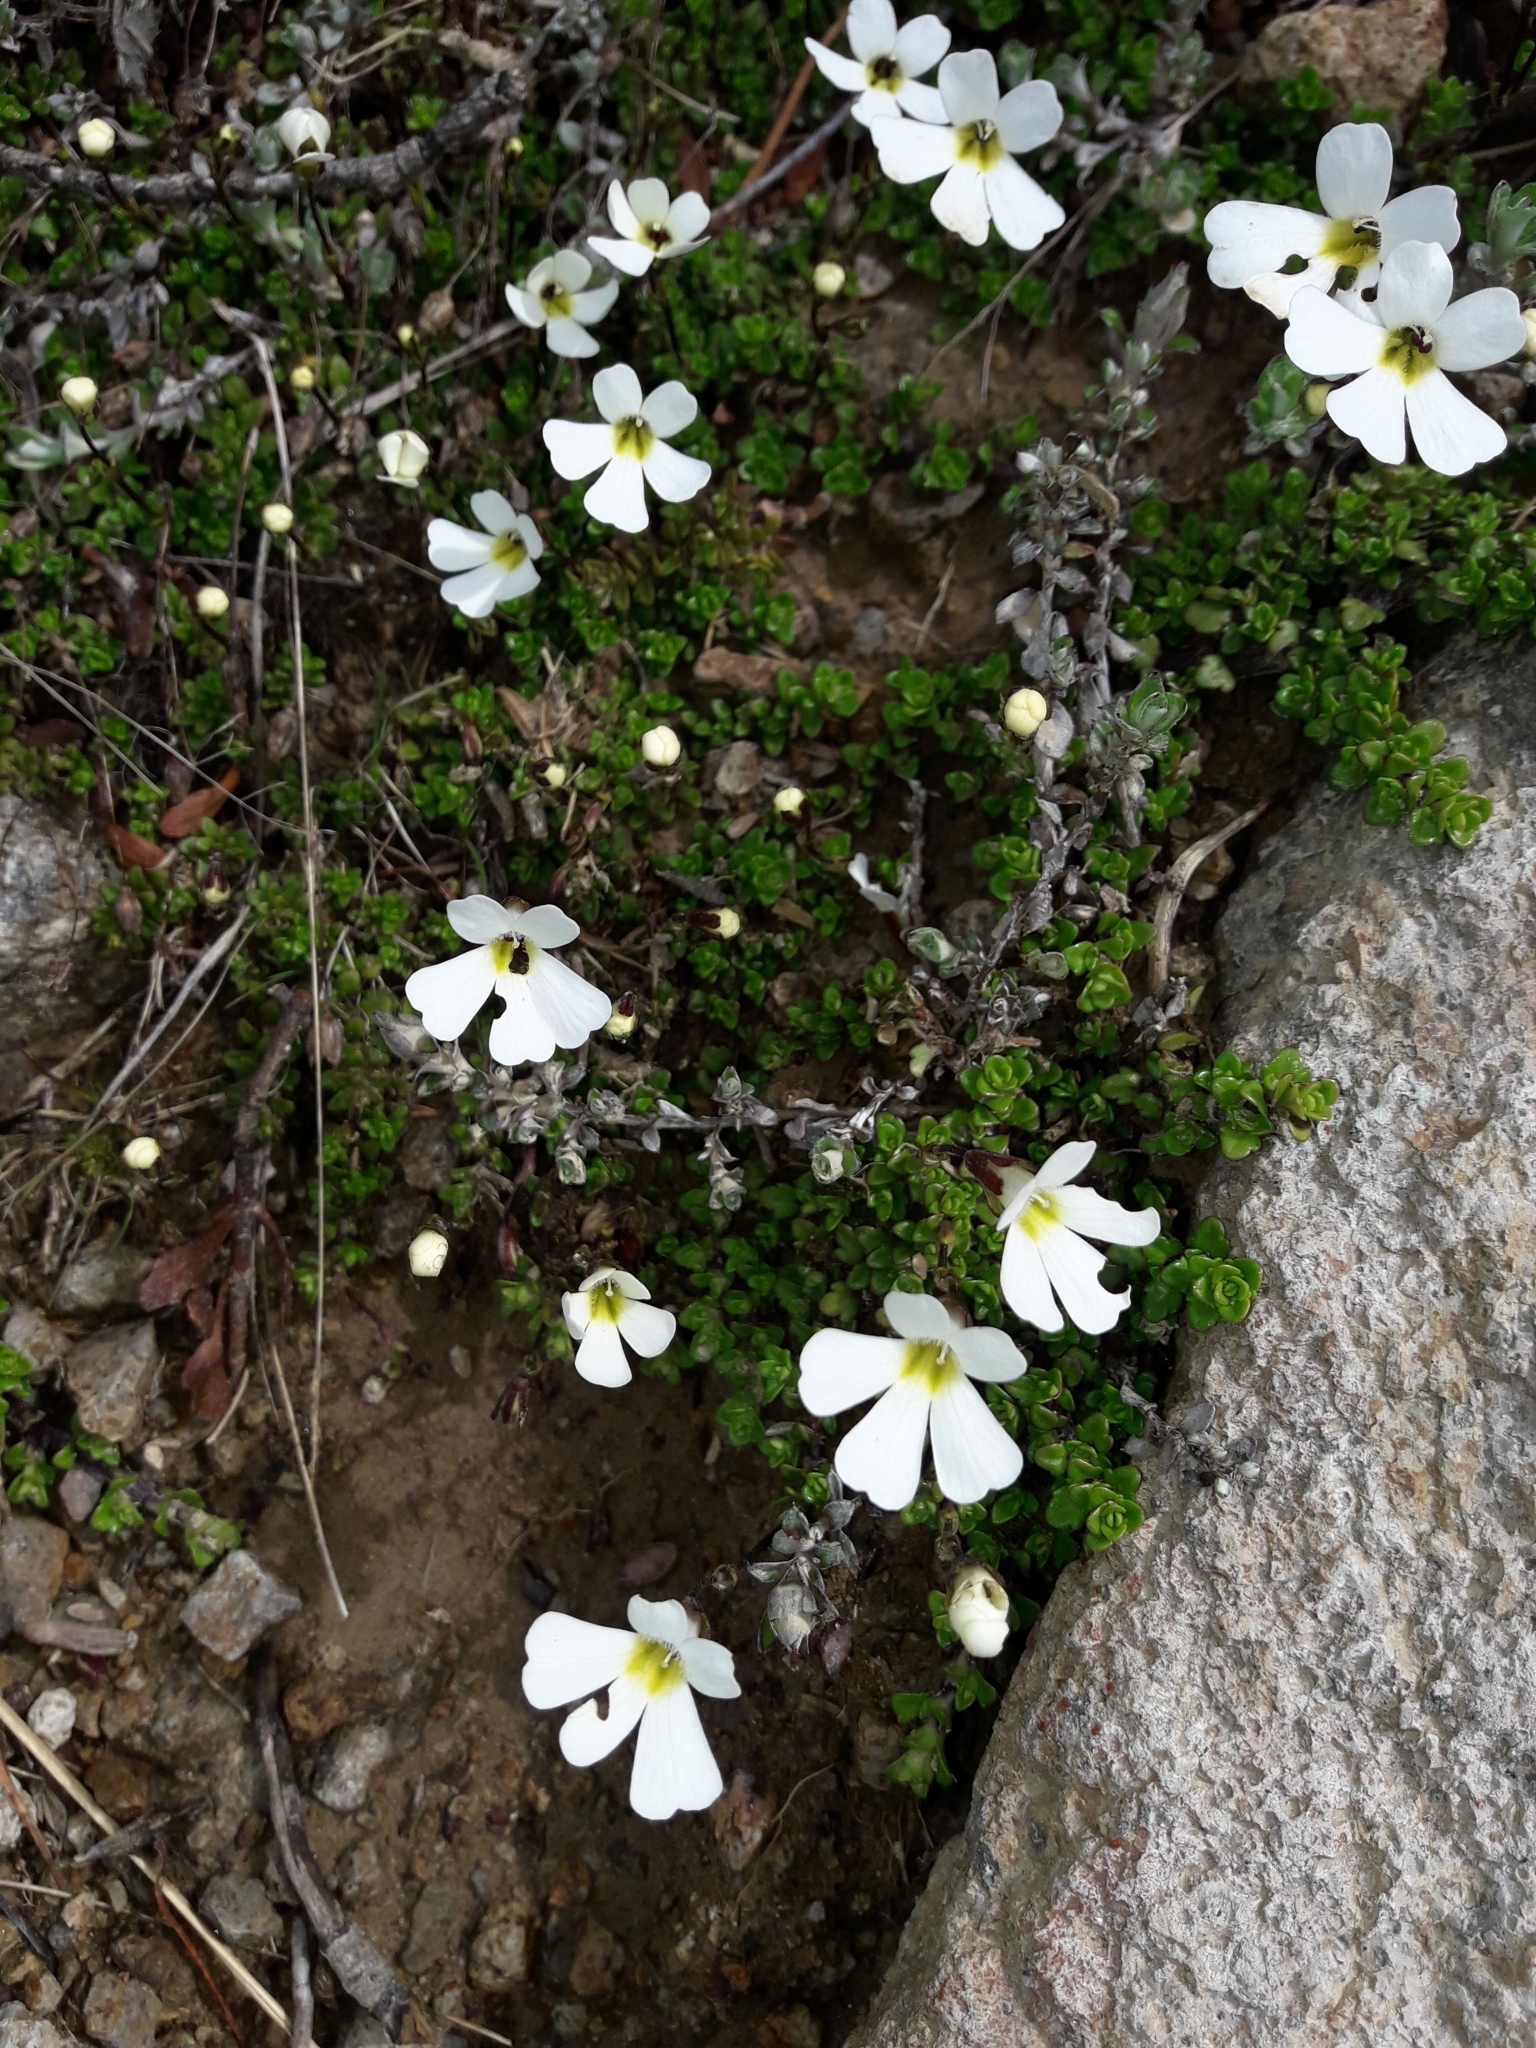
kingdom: Plantae
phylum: Tracheophyta
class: Magnoliopsida
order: Lamiales
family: Plantaginaceae
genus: Ourisia
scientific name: Ourisia caespitosa
